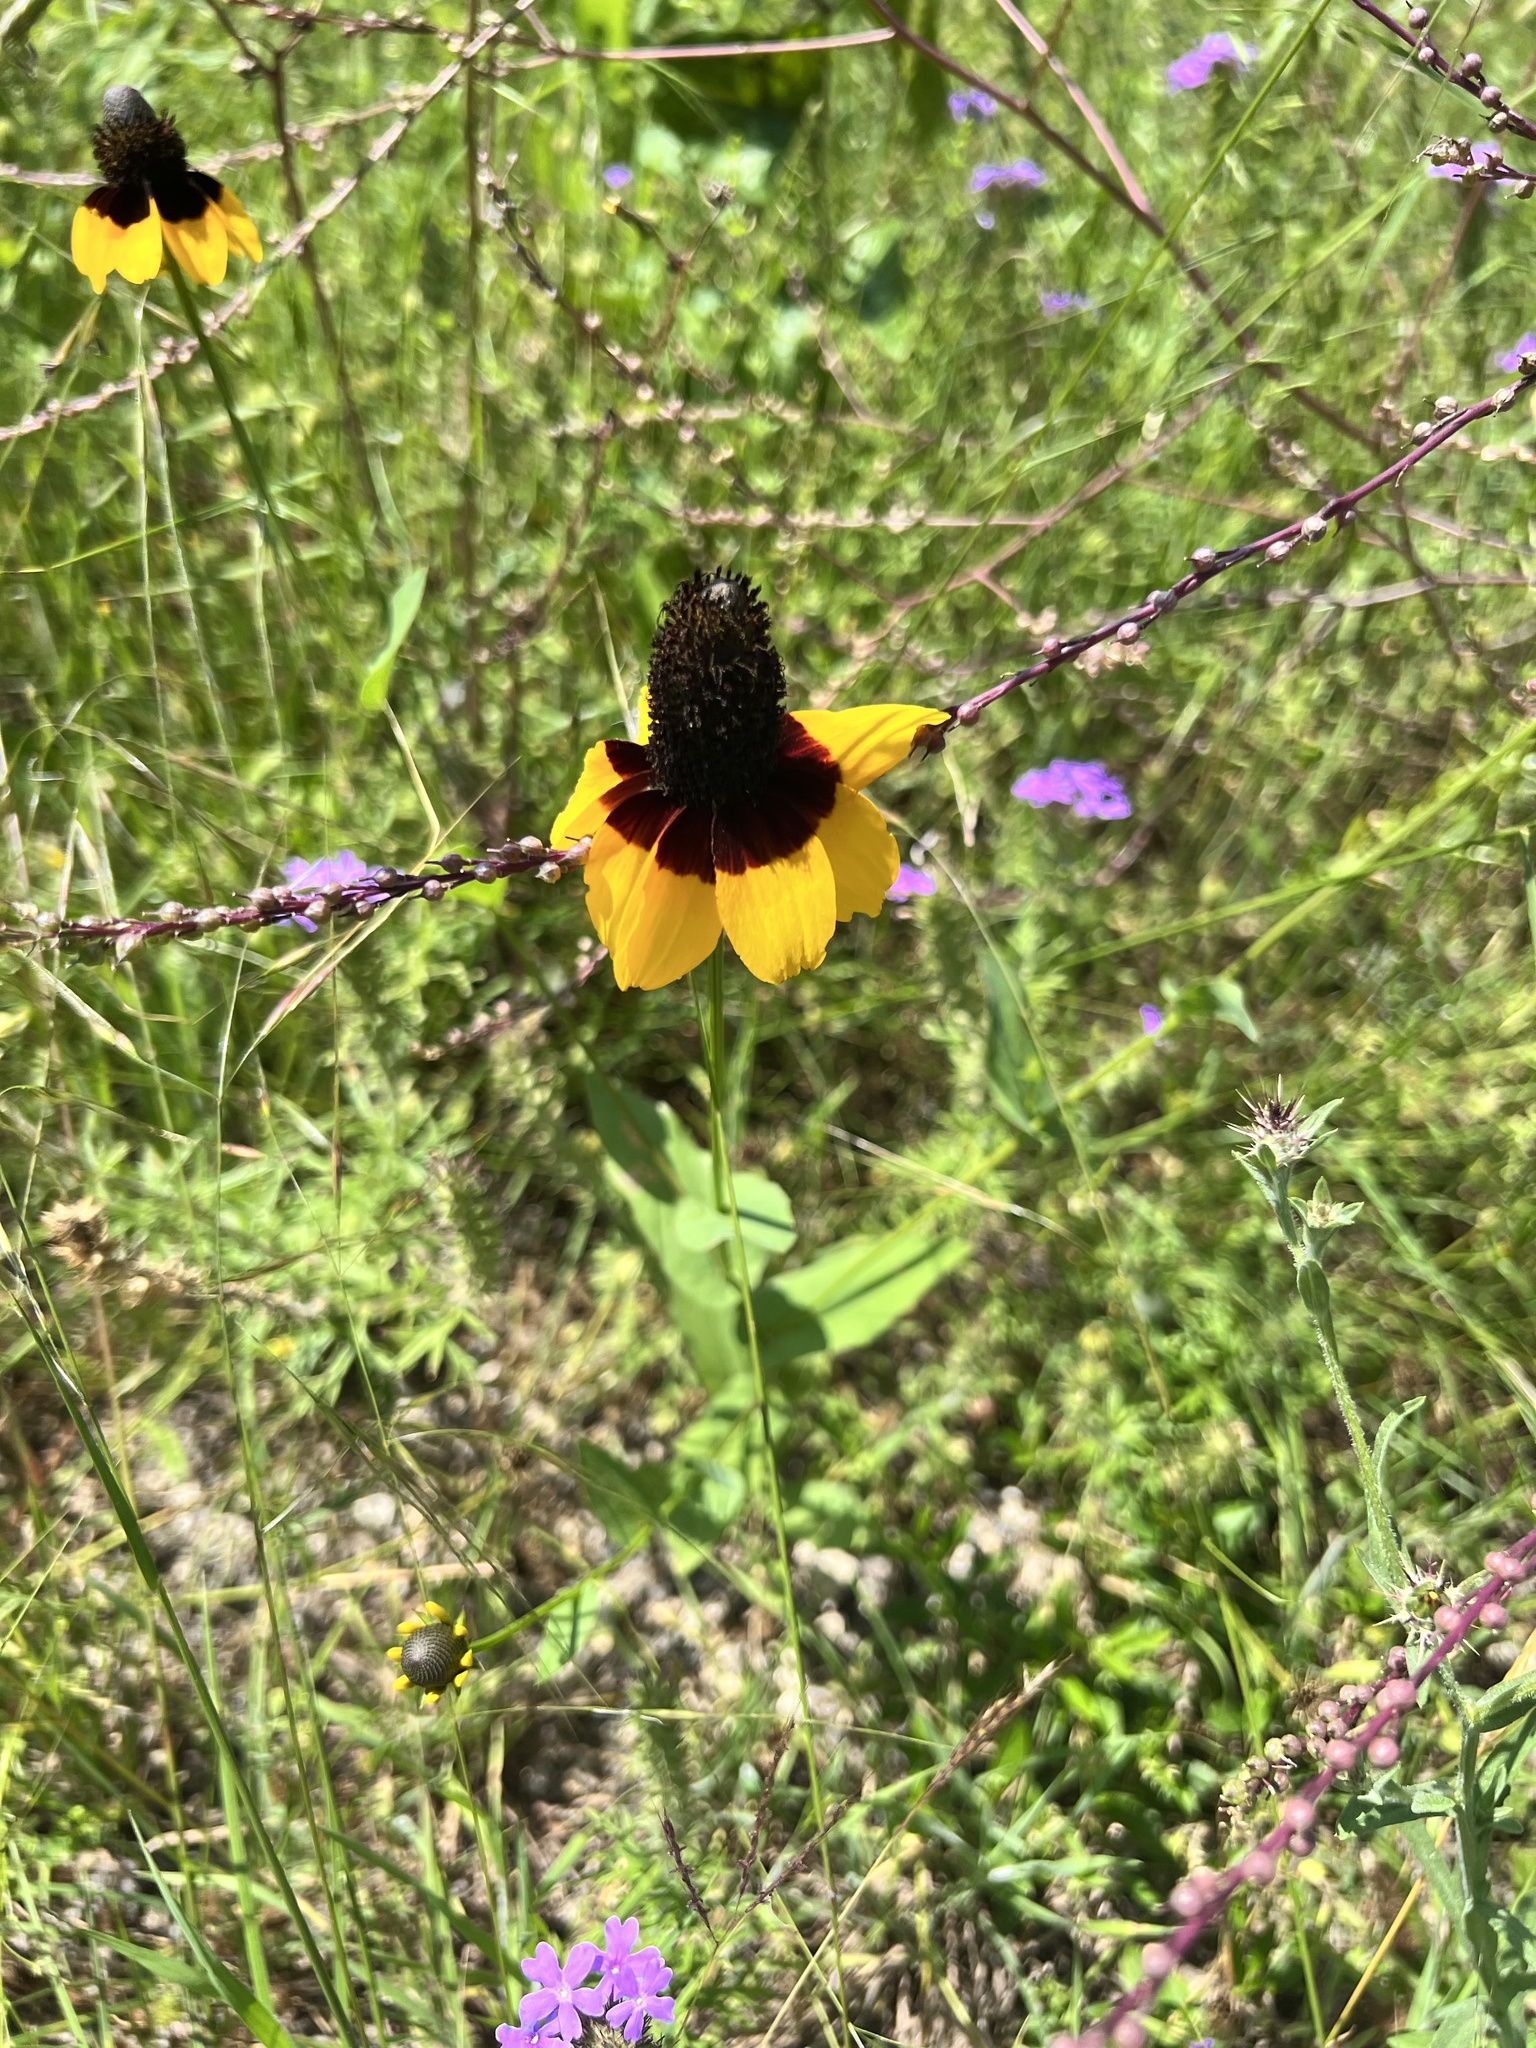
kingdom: Plantae
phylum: Tracheophyta
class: Magnoliopsida
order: Asterales
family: Asteraceae
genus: Rudbeckia
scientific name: Rudbeckia amplexicaulis
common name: Clasping-leaf coneflower
